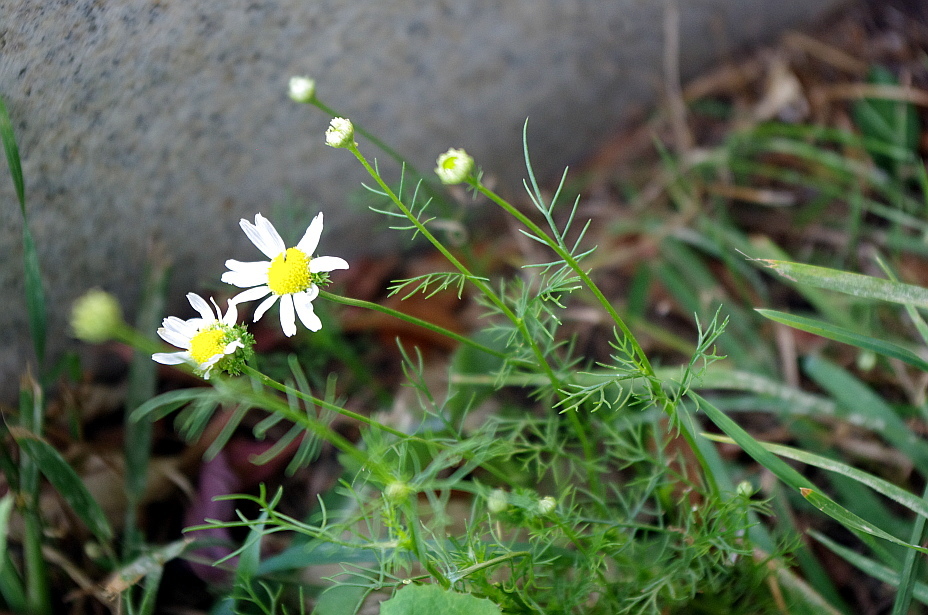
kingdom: Plantae
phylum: Tracheophyta
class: Magnoliopsida
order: Asterales
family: Asteraceae
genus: Tripleurospermum
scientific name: Tripleurospermum inodorum
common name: Scentless mayweed
